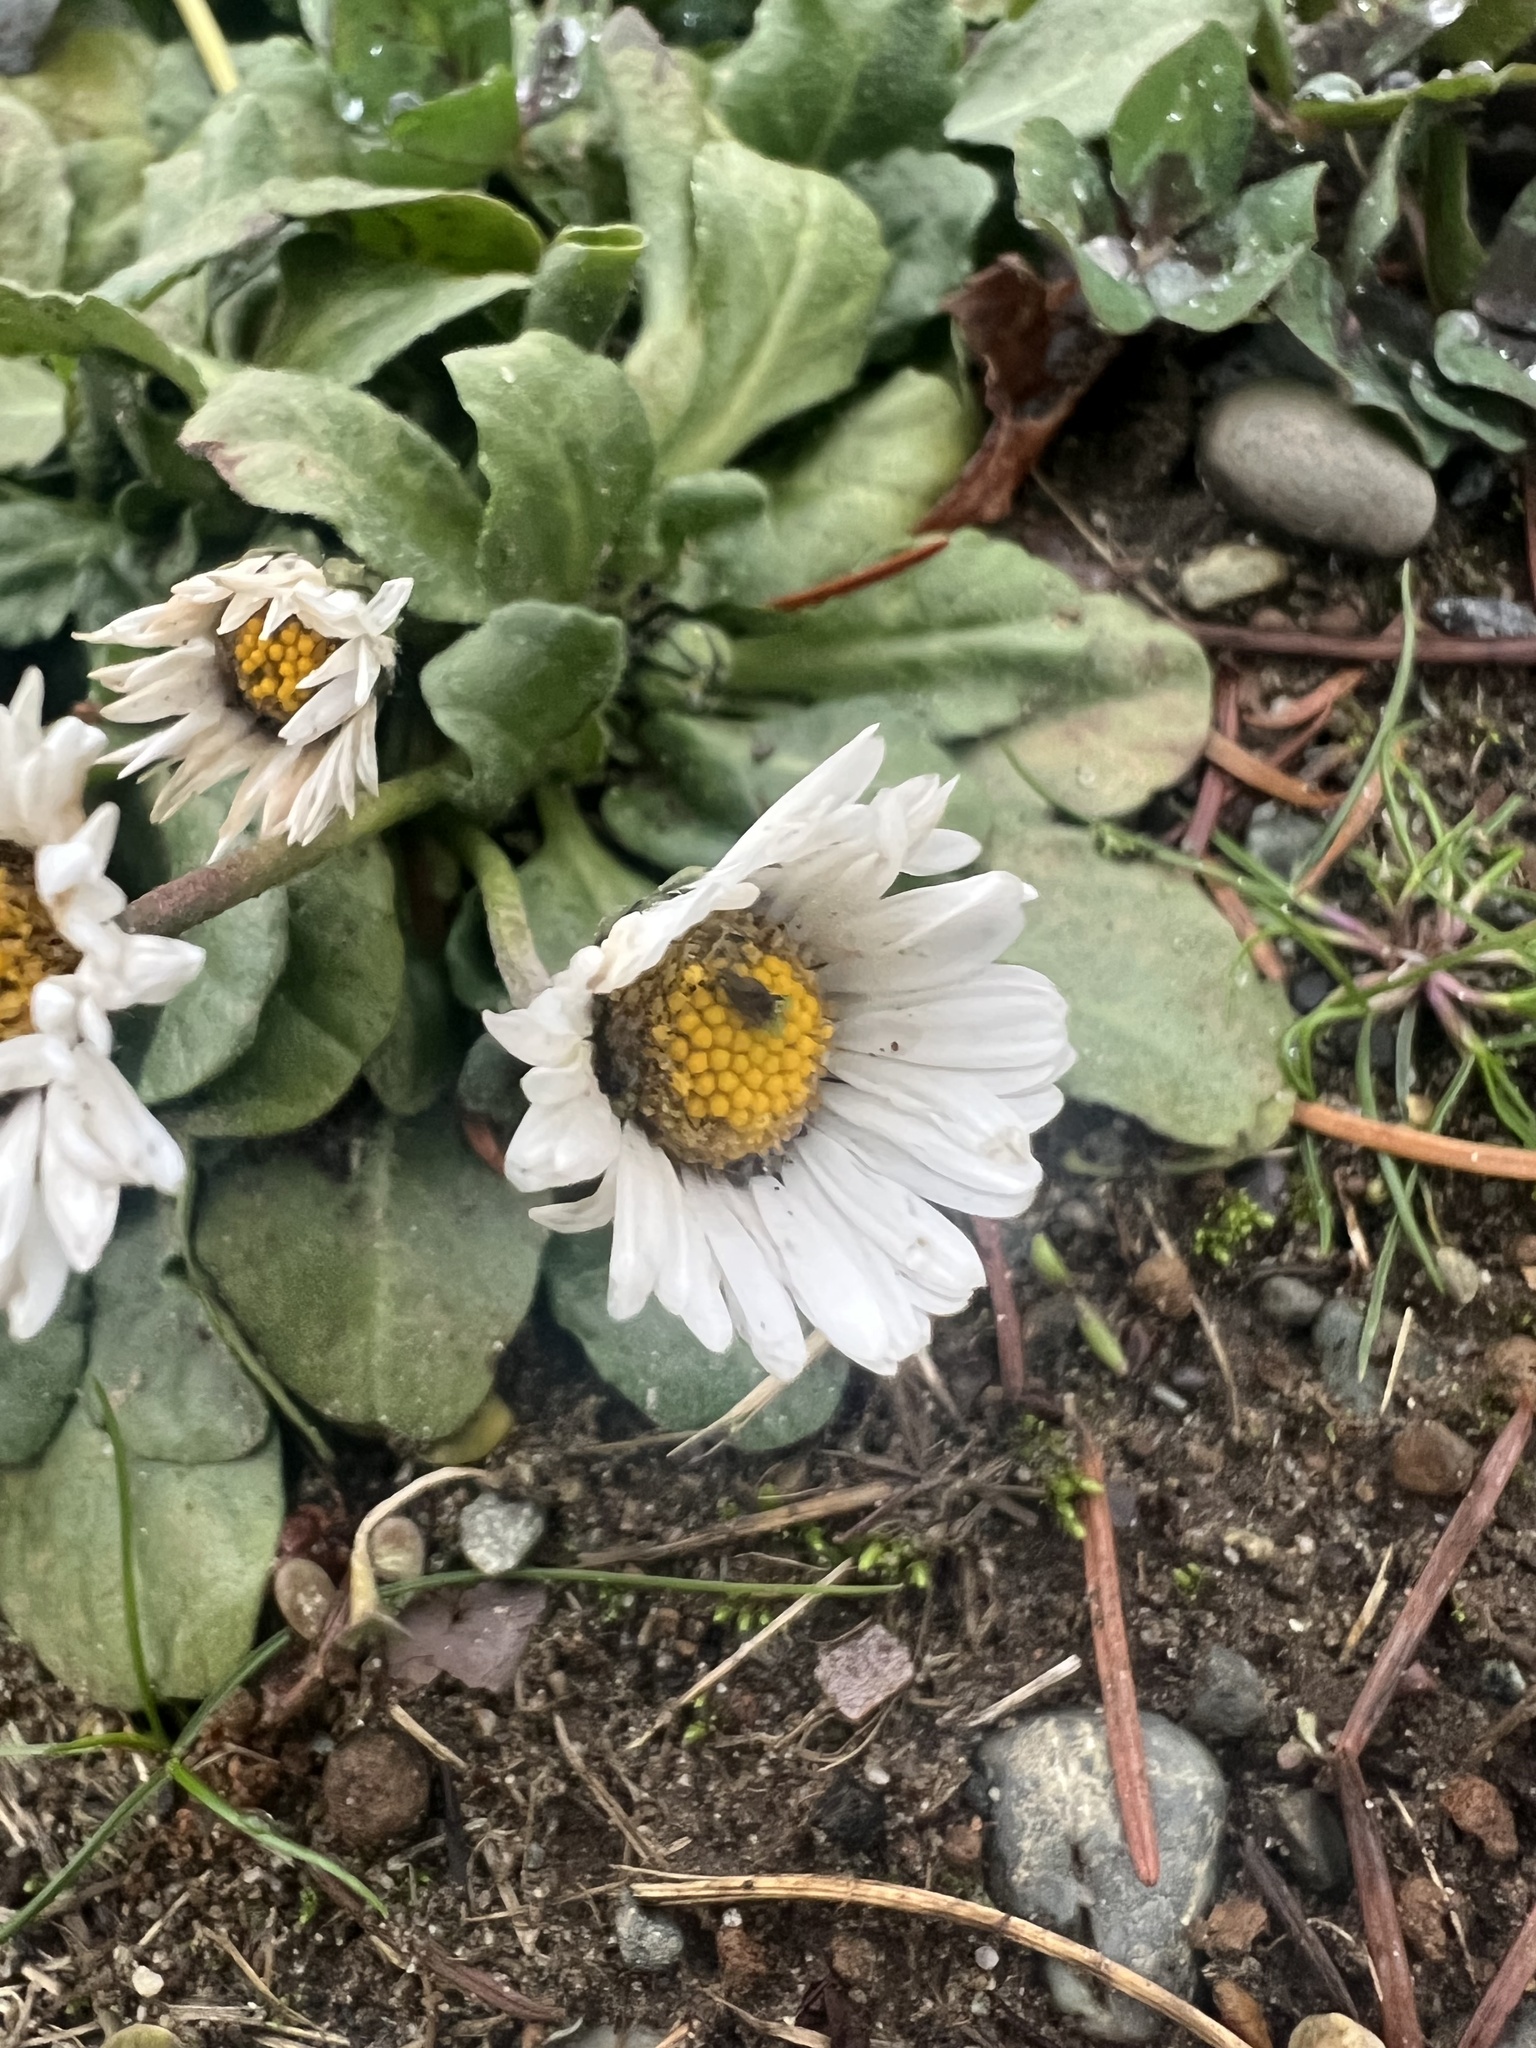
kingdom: Plantae
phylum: Tracheophyta
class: Magnoliopsida
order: Asterales
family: Asteraceae
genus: Bellis
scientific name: Bellis perennis
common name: Lawndaisy
